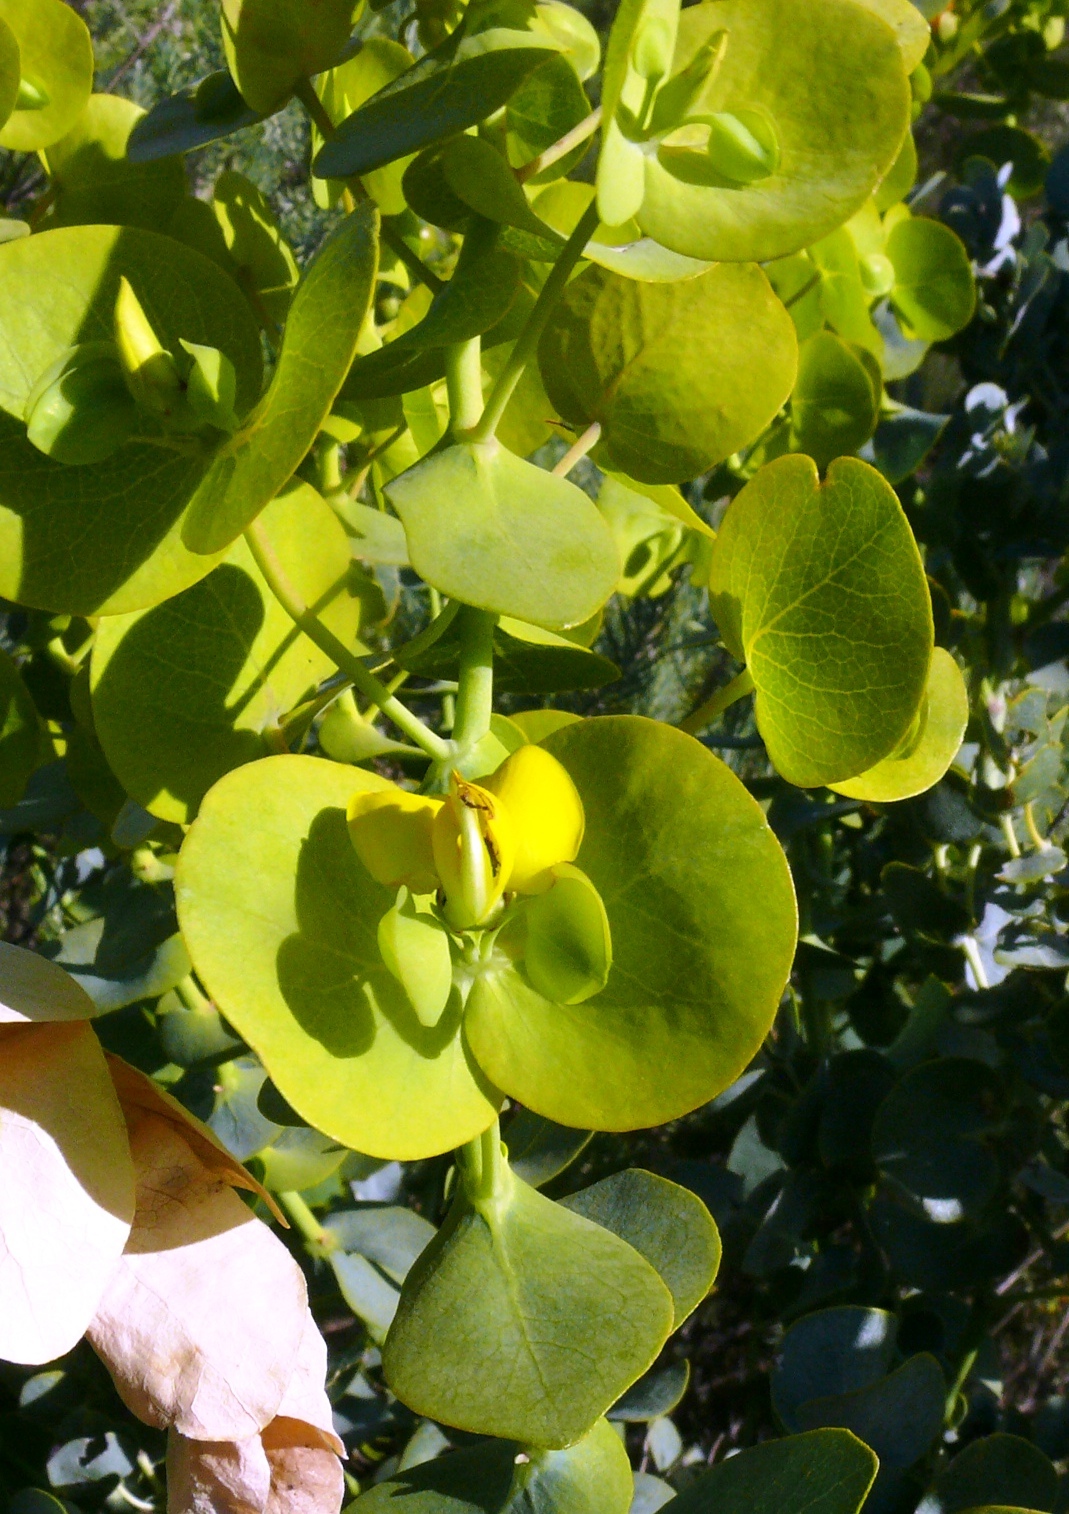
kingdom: Plantae
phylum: Tracheophyta
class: Magnoliopsida
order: Fabales
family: Fabaceae
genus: Rafnia
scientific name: Rafnia amplexicaulis
